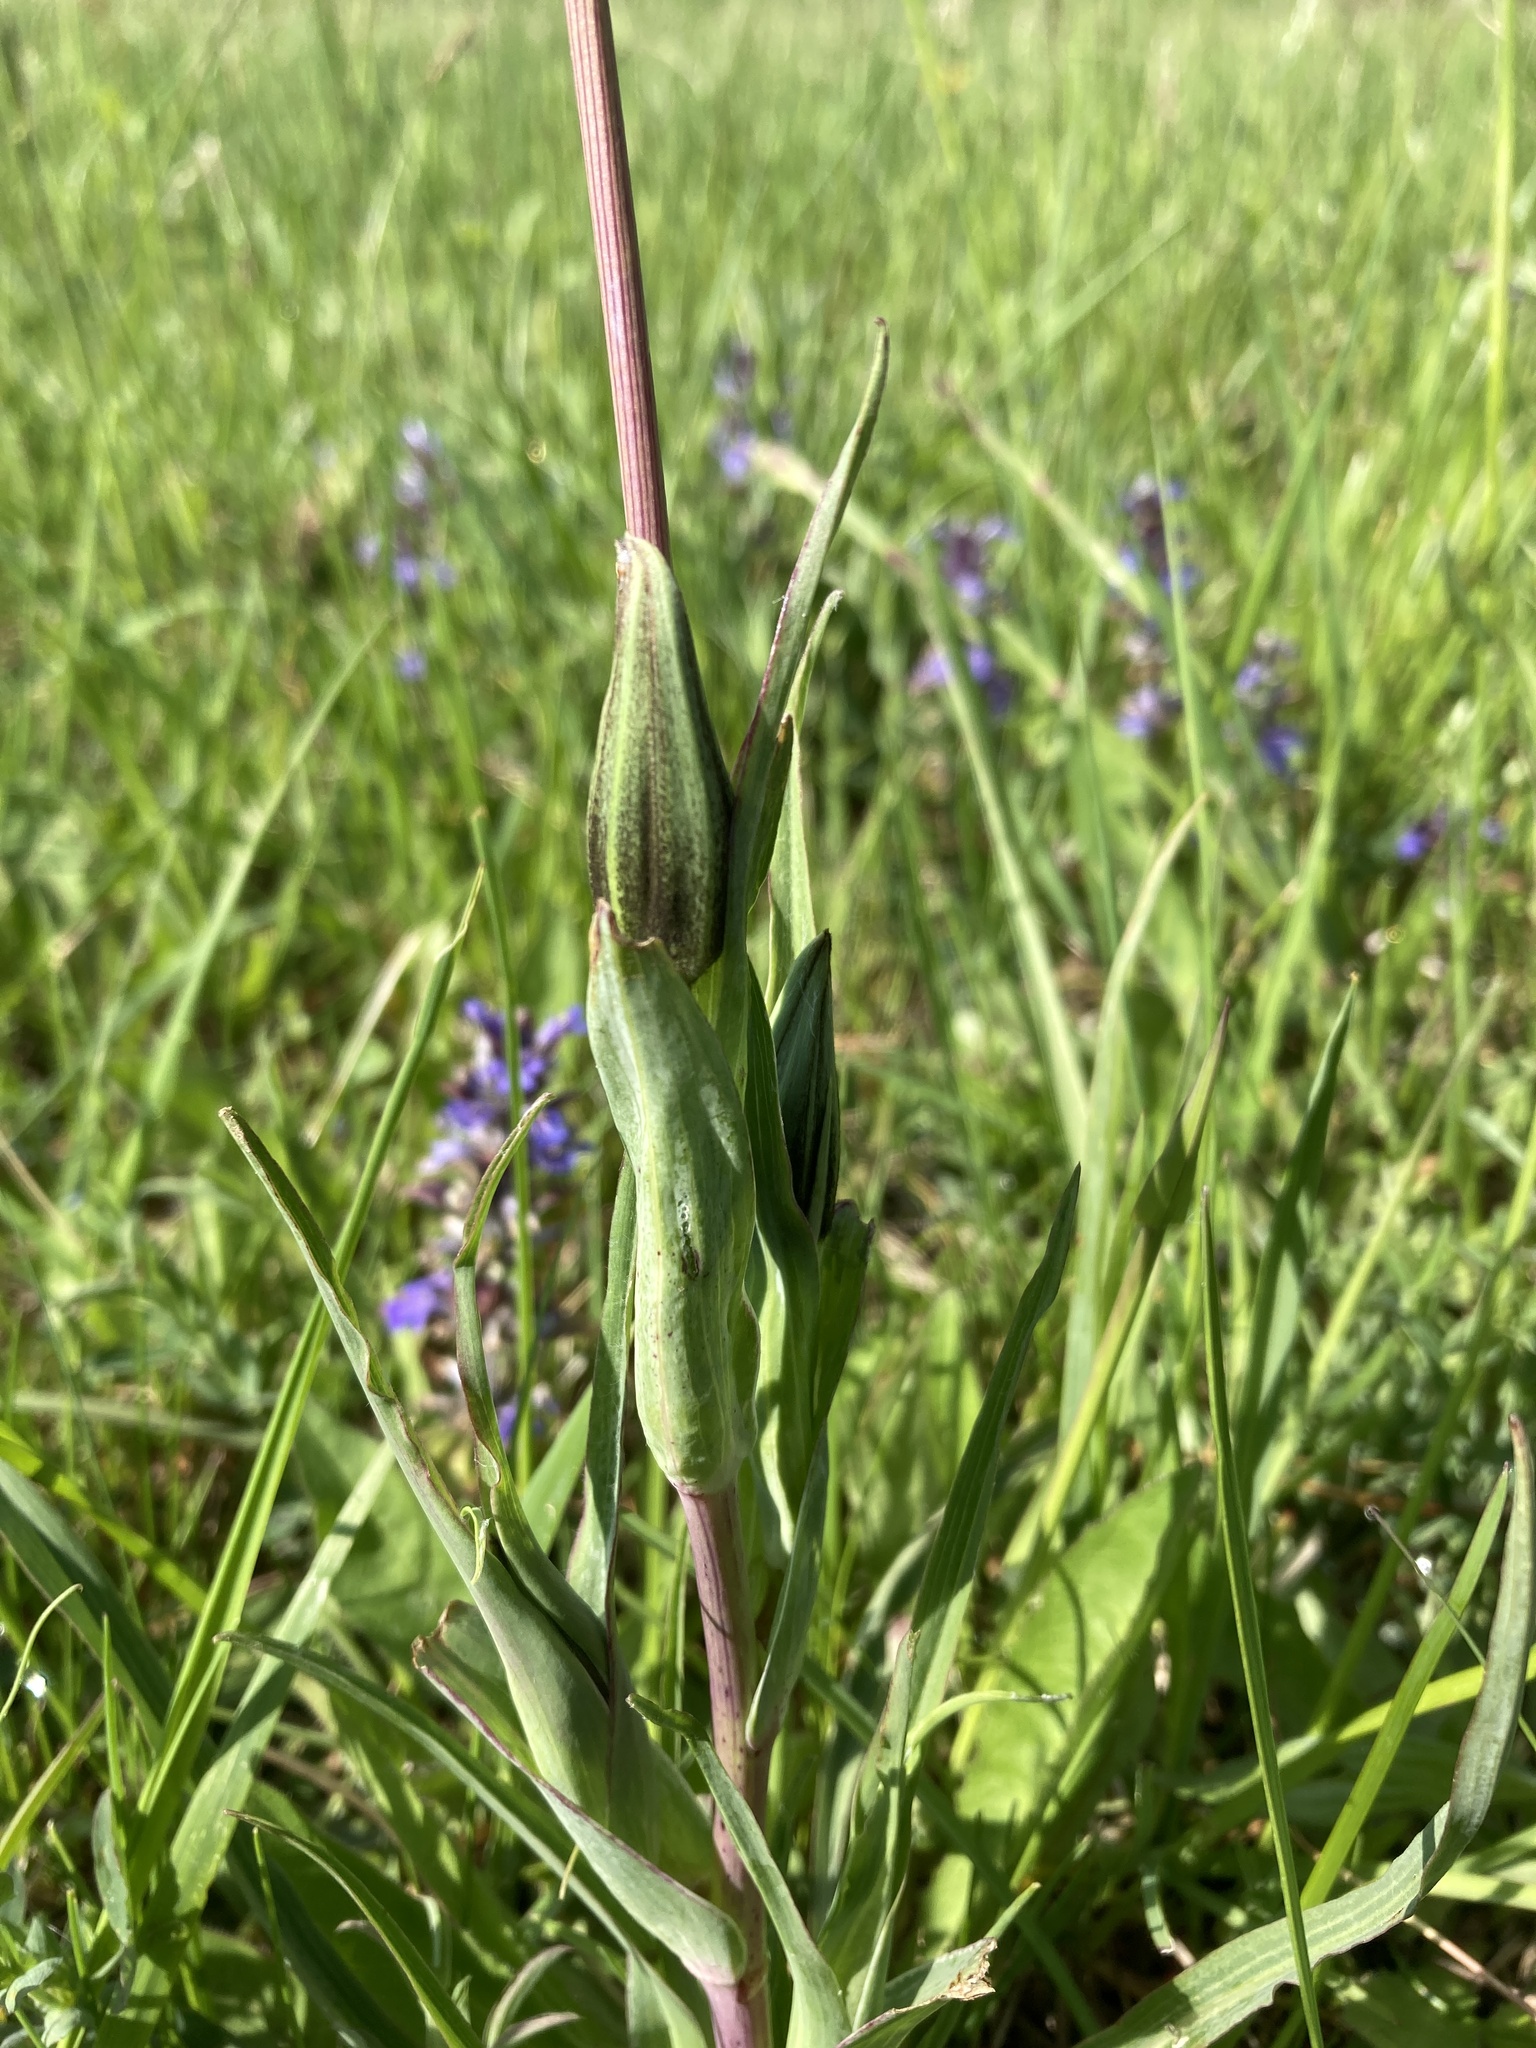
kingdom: Plantae
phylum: Tracheophyta
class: Magnoliopsida
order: Asterales
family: Asteraceae
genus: Tragopogon
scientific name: Tragopogon orientalis
